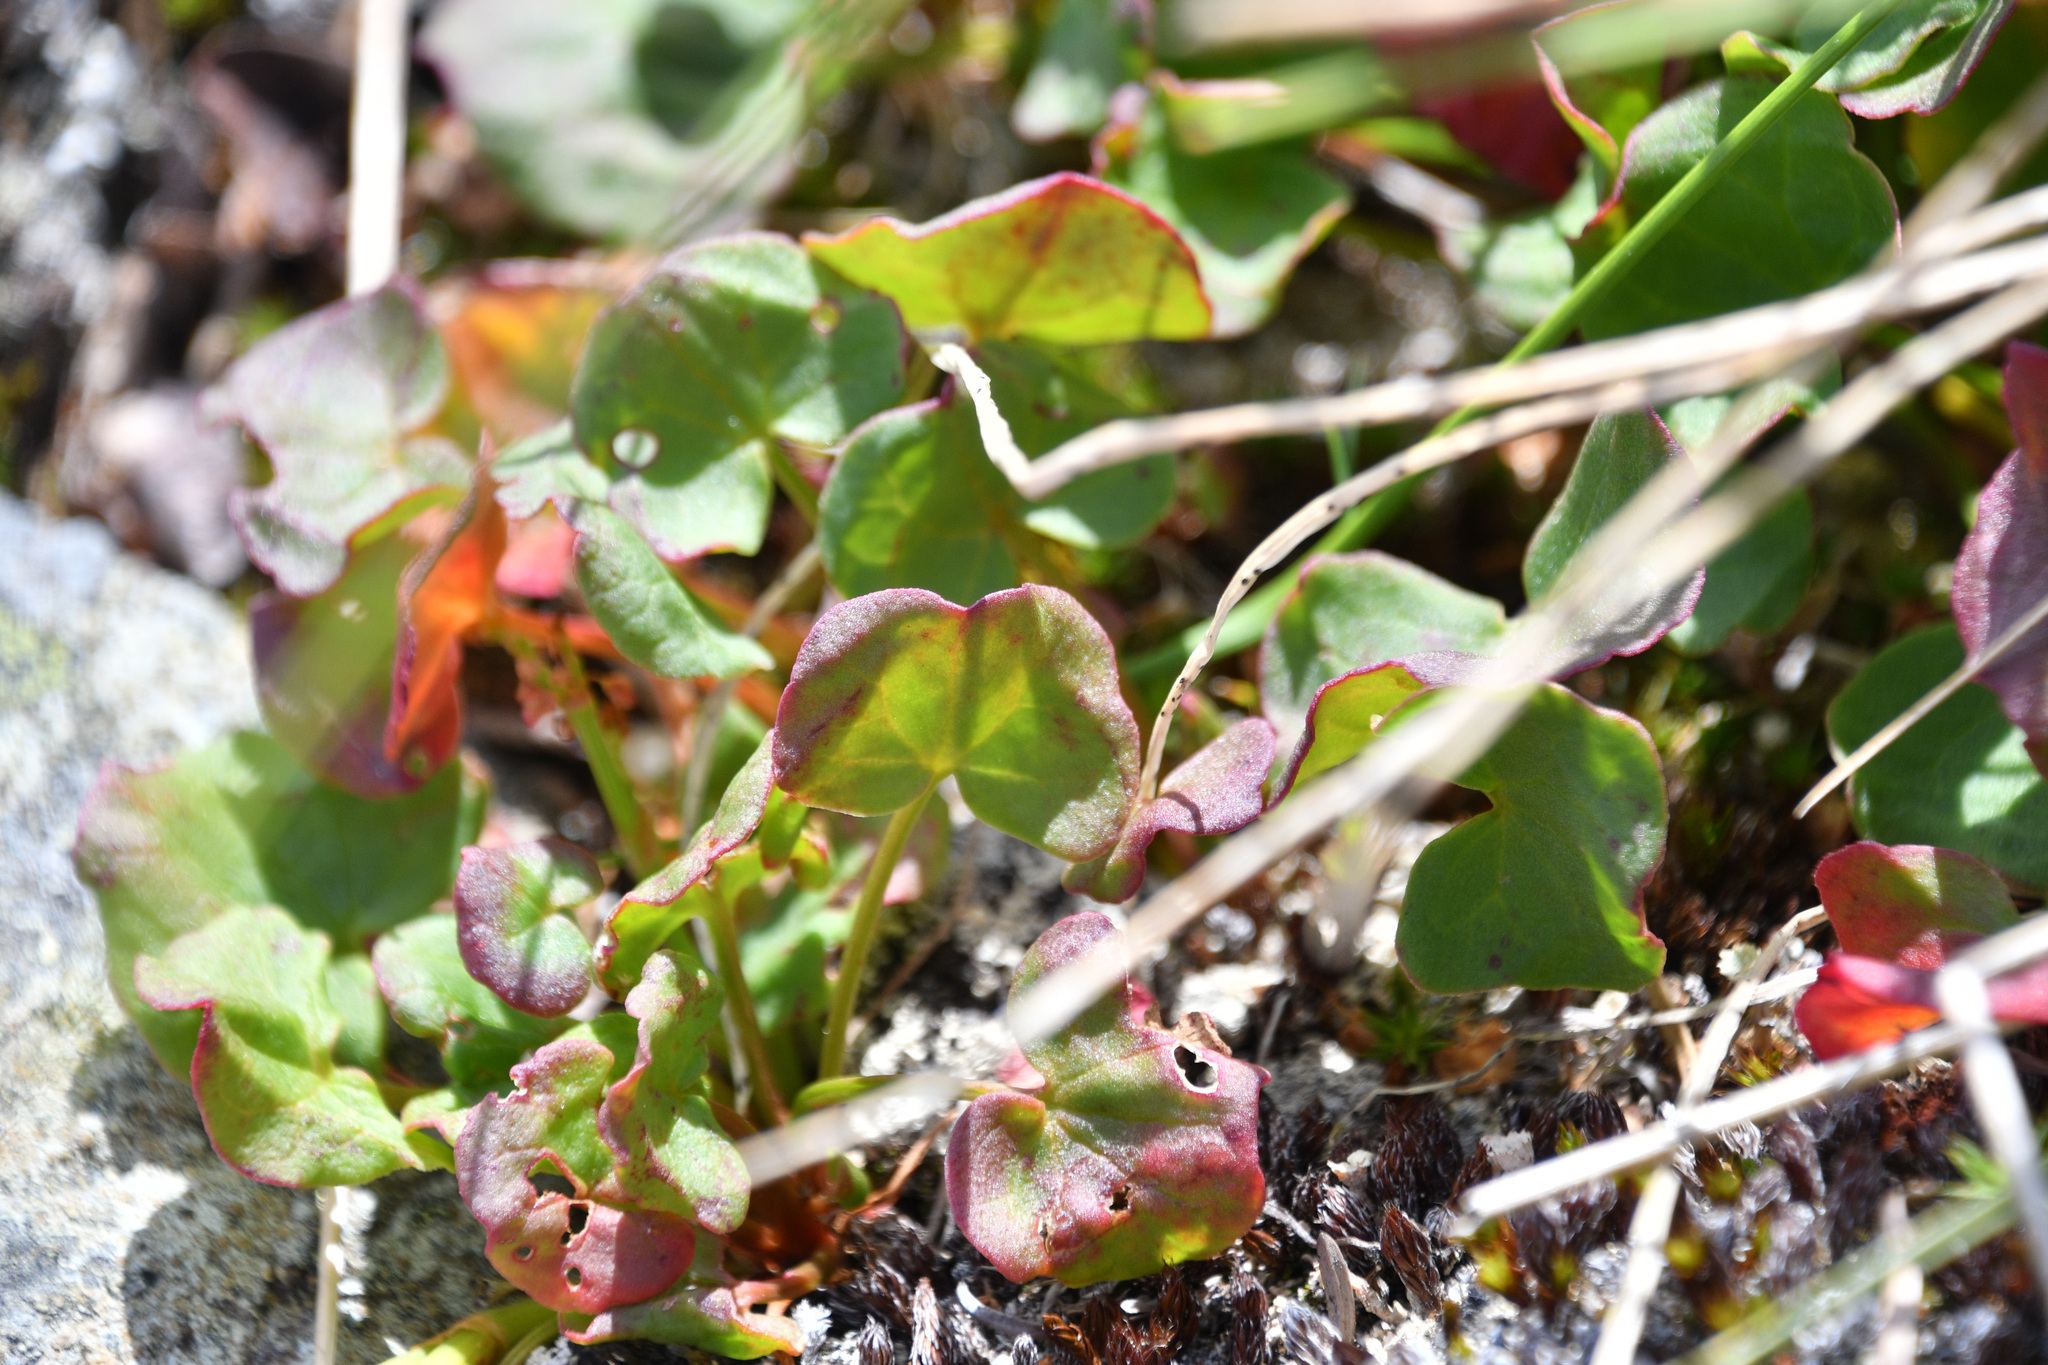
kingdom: Plantae
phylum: Tracheophyta
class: Magnoliopsida
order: Caryophyllales
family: Polygonaceae
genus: Oxyria
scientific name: Oxyria digyna
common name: Alpine mountain-sorrel
